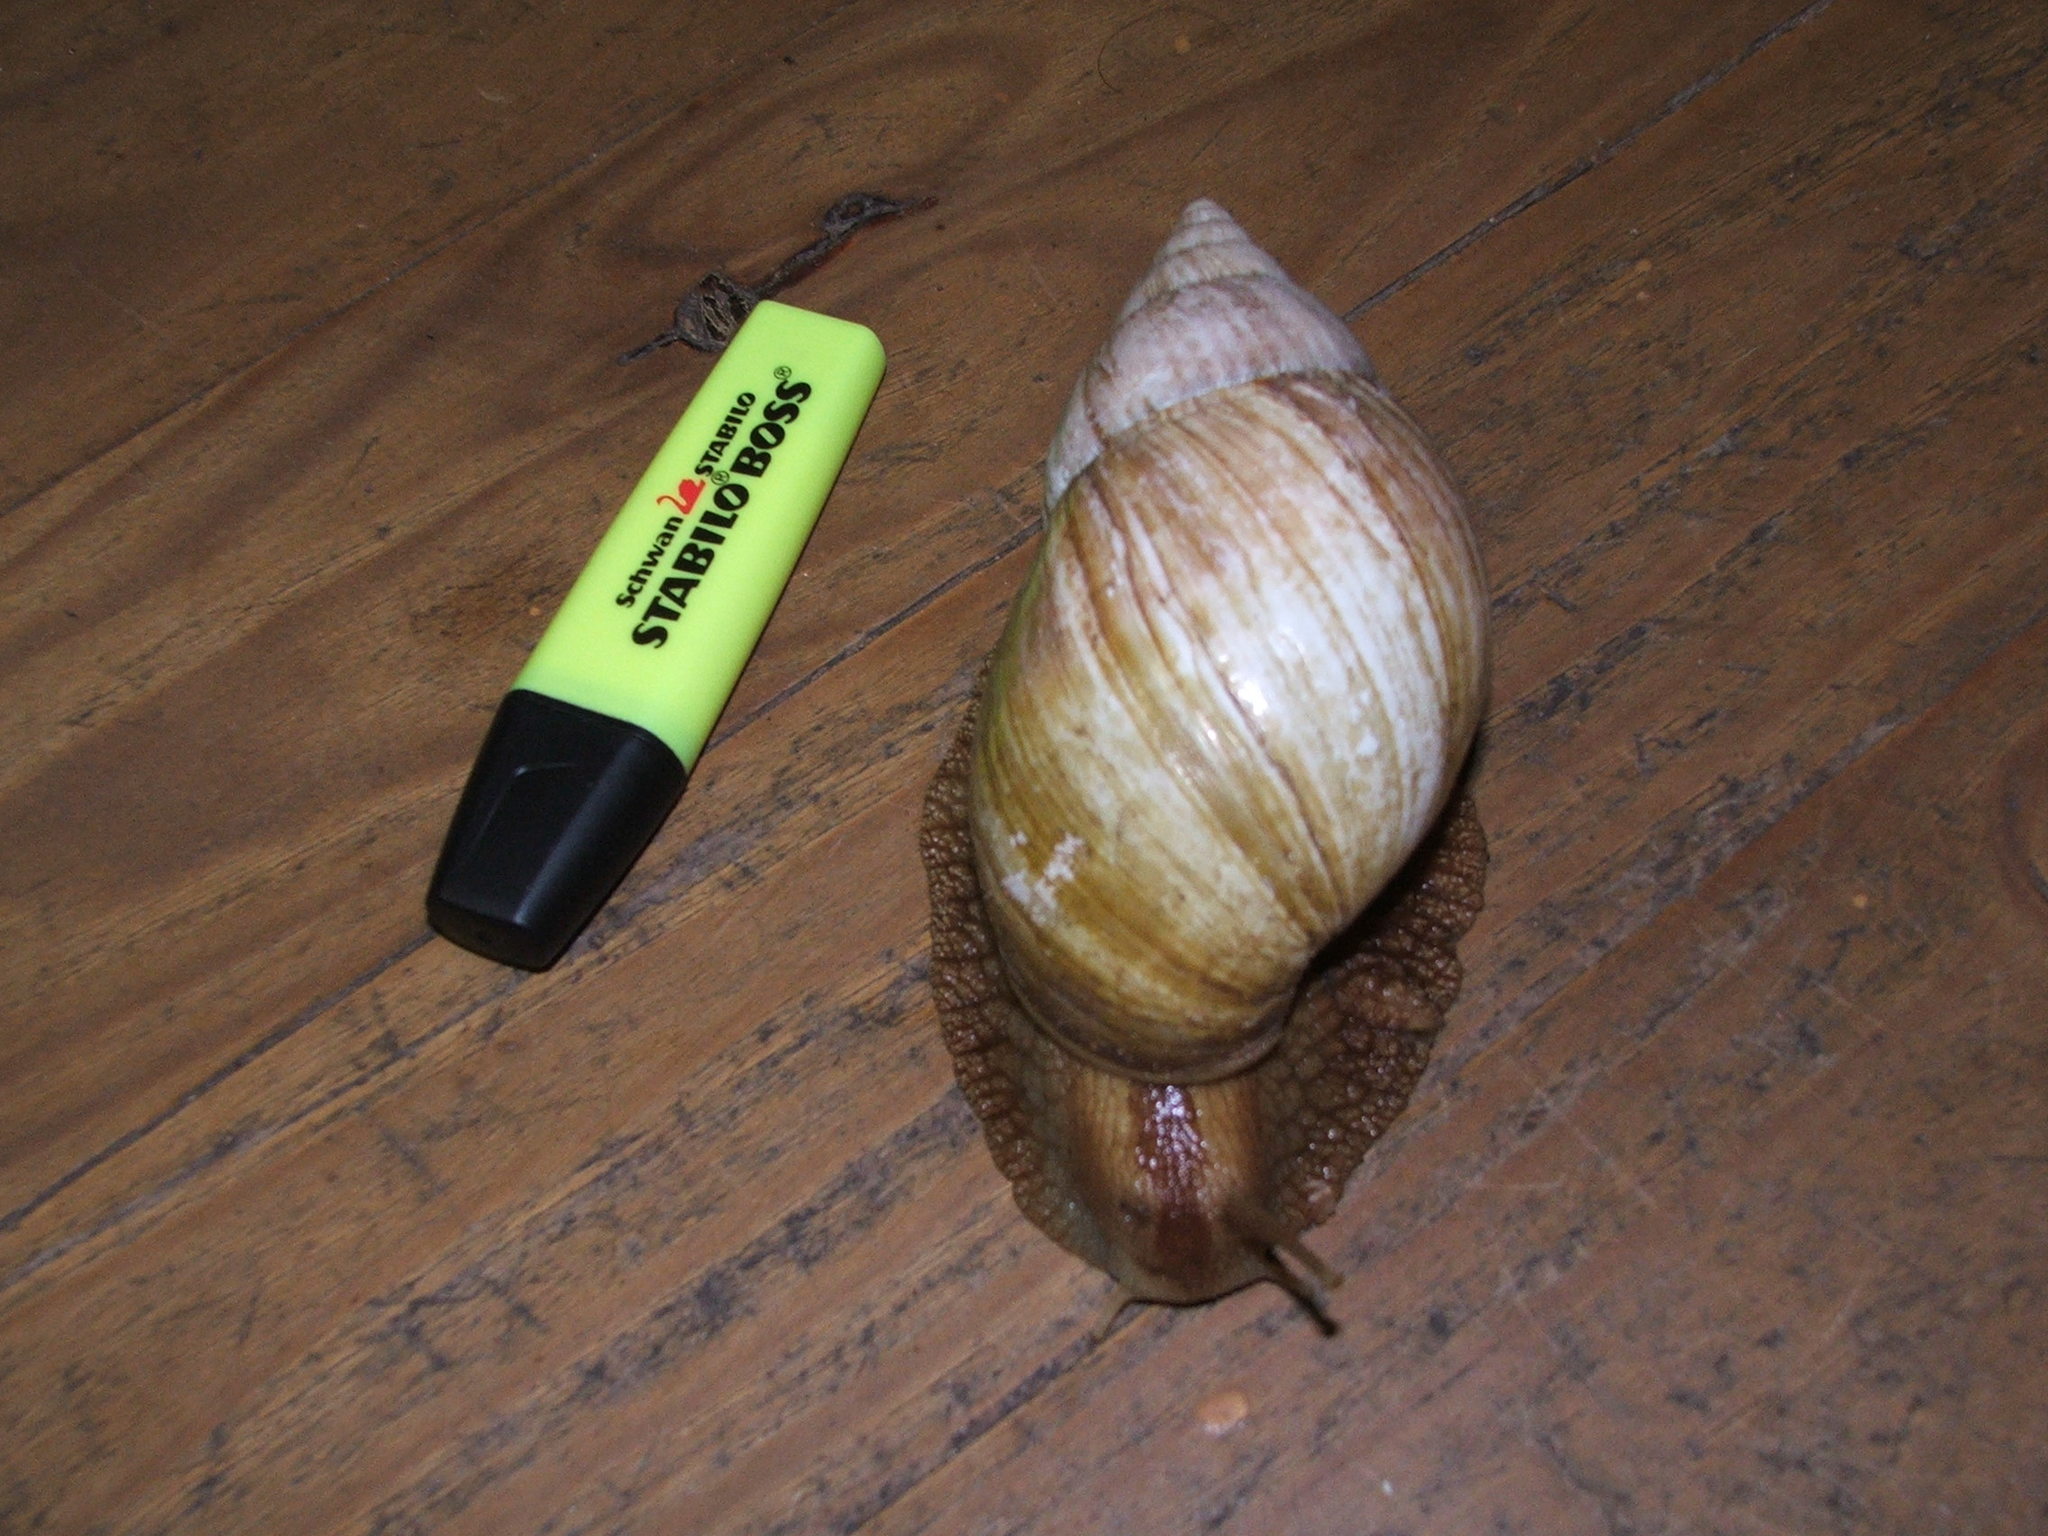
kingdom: Animalia
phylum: Mollusca
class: Gastropoda
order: Stylommatophora
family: Achatinidae
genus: Lissachatina
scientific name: Lissachatina immaculata
